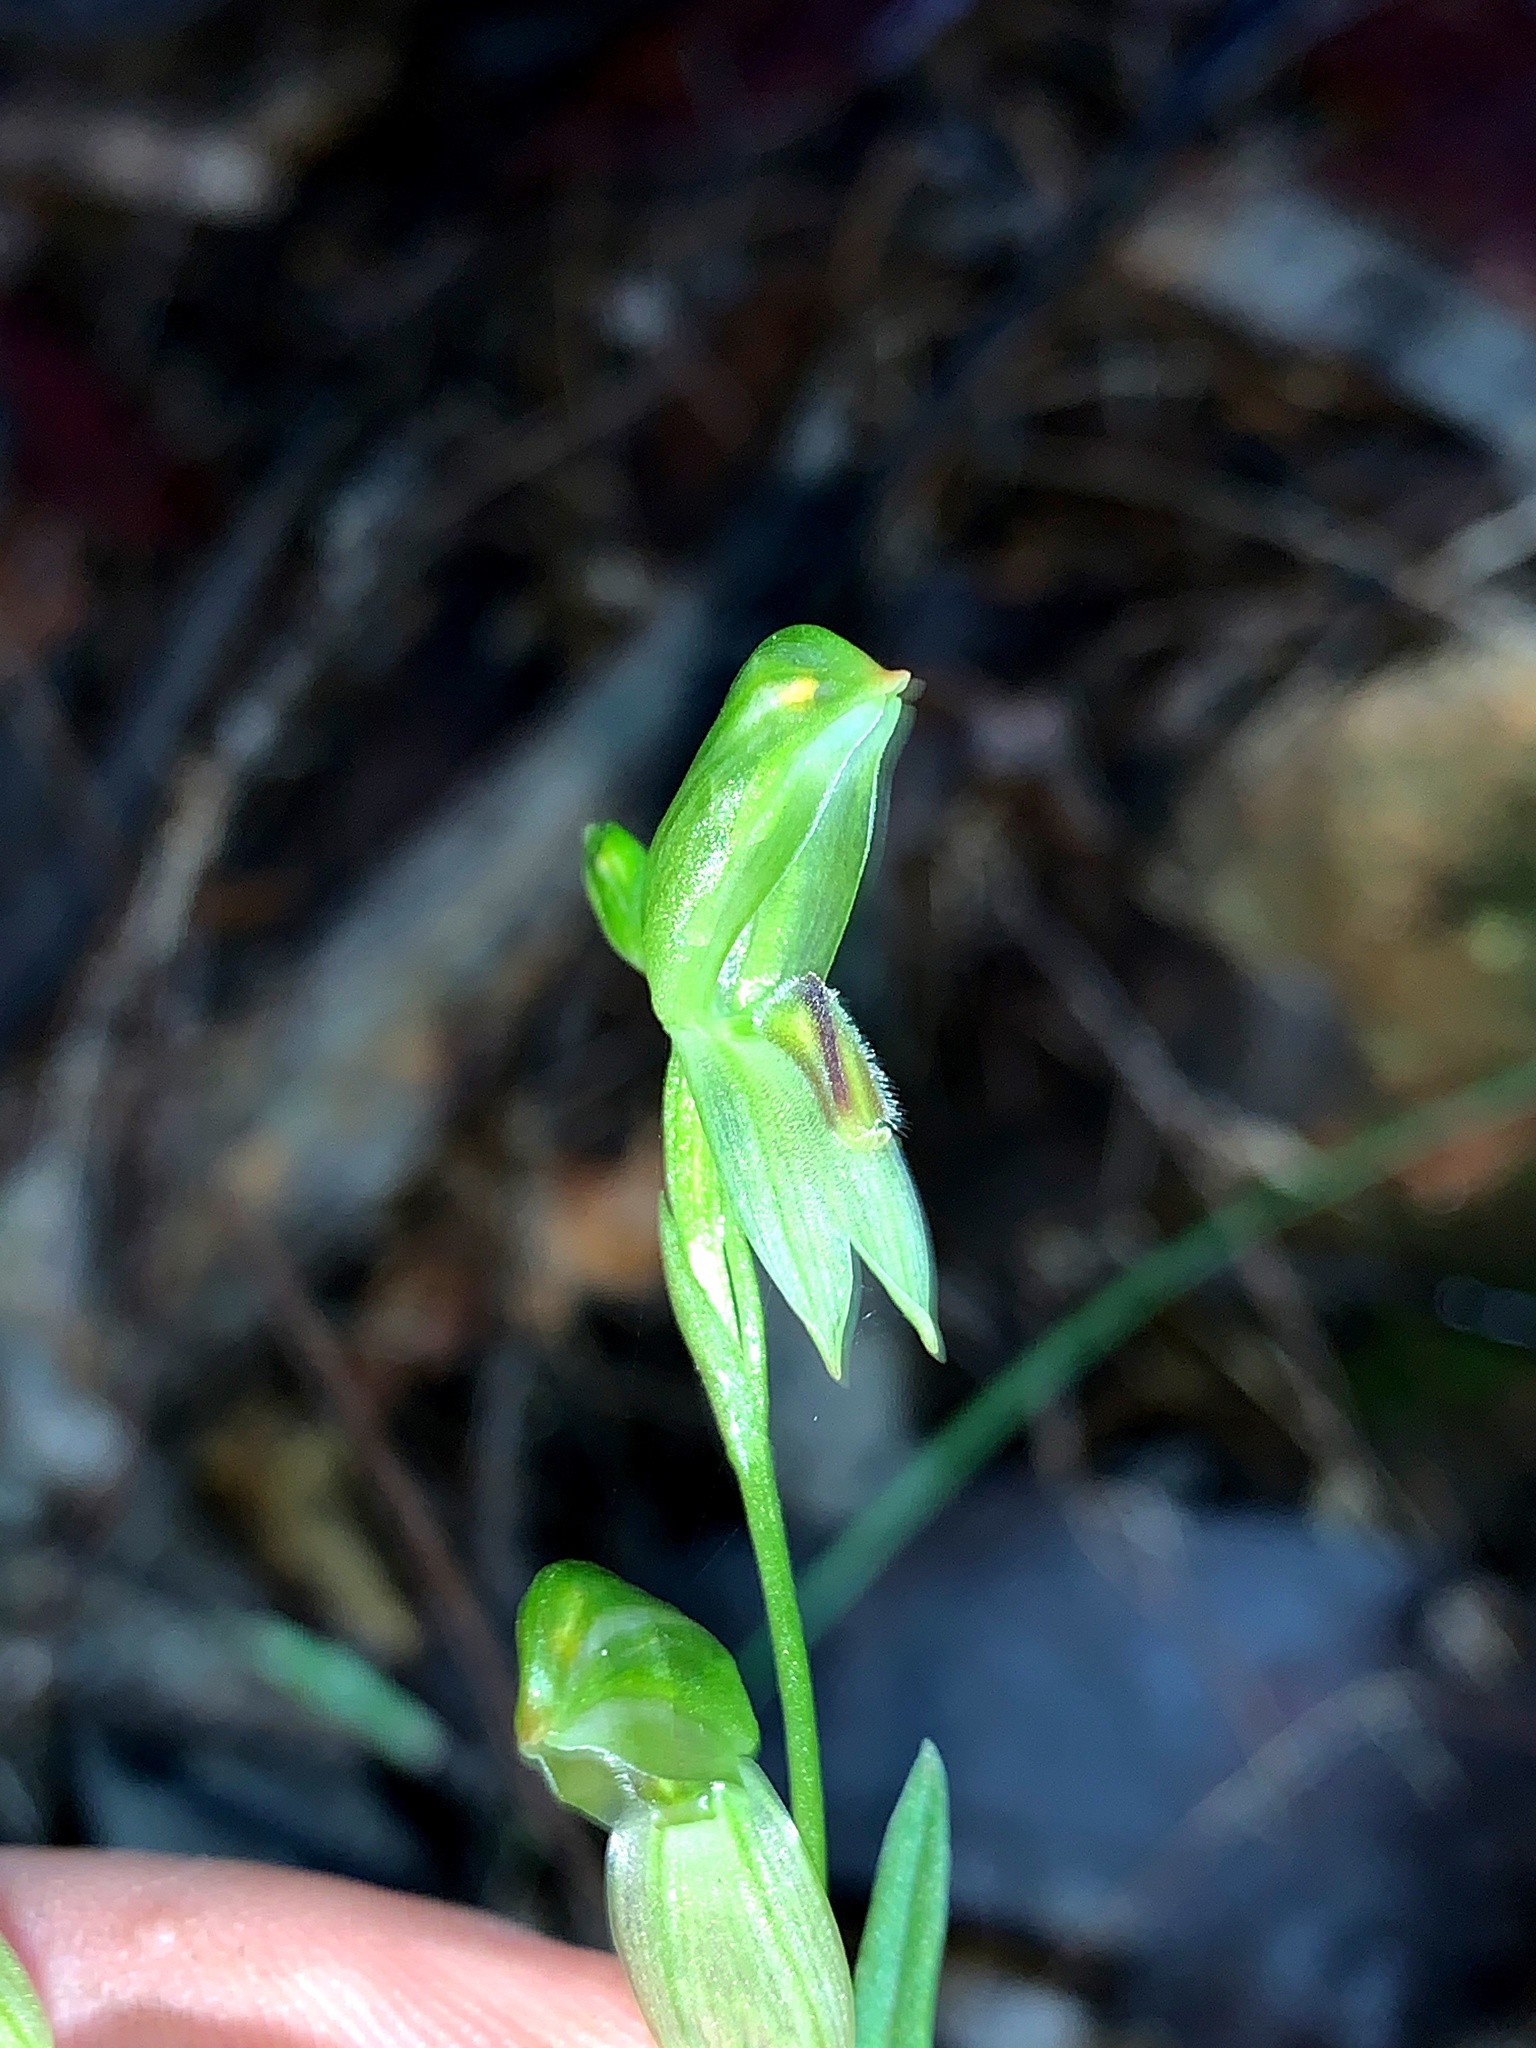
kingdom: Plantae
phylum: Tracheophyta
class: Liliopsida
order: Asparagales
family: Orchidaceae
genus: Pterostylis
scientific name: Pterostylis longifolia
